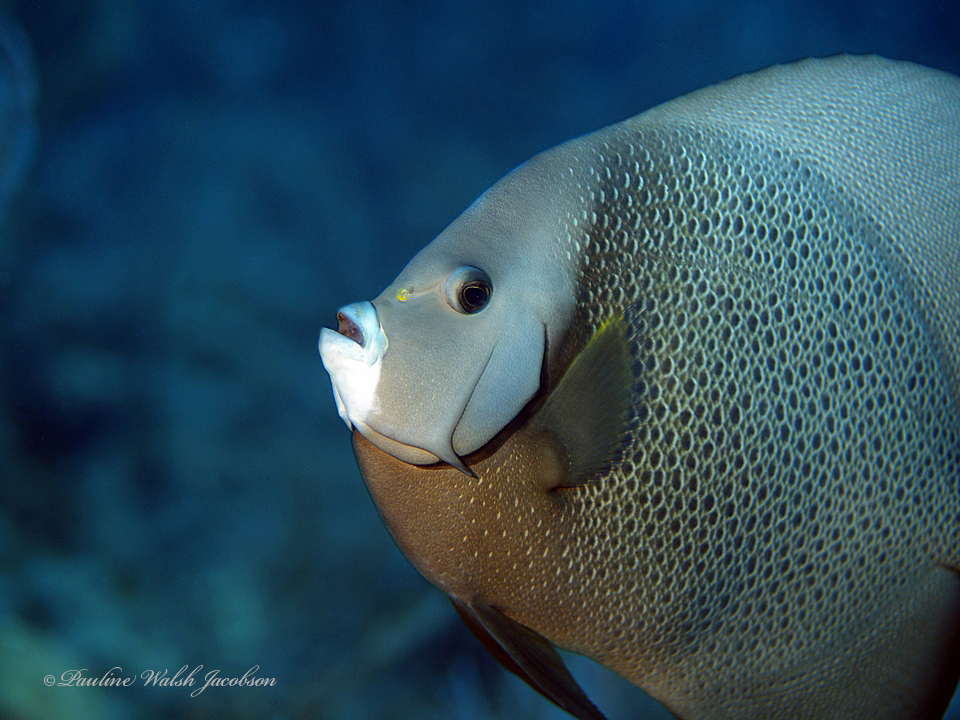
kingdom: Animalia
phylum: Chordata
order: Perciformes
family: Pomacanthidae
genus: Pomacanthus
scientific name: Pomacanthus arcuatus
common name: Gray angelfish
